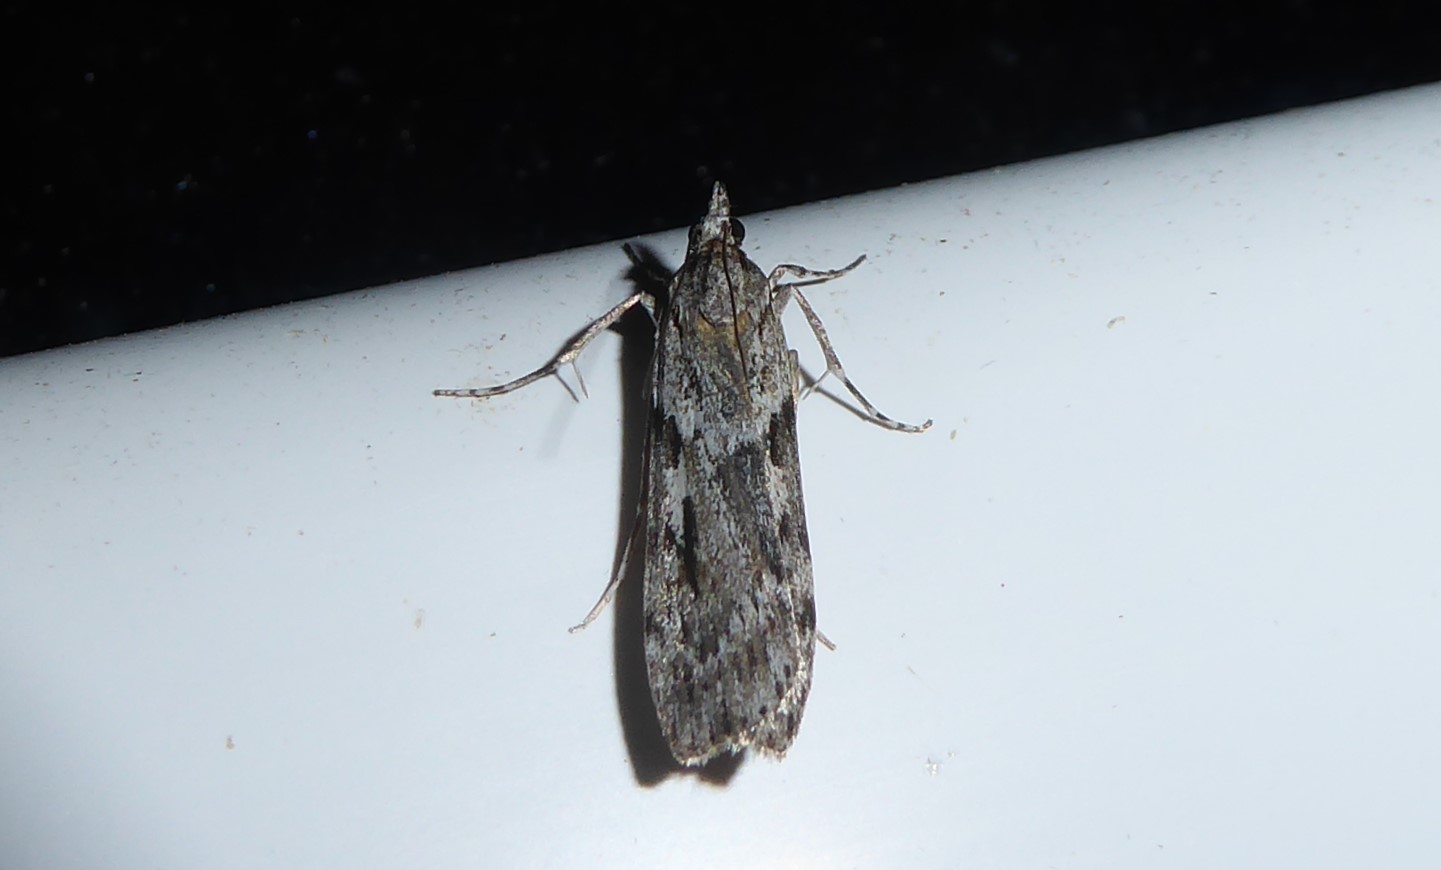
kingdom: Animalia
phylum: Arthropoda
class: Insecta
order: Lepidoptera
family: Crambidae
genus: Scoparia
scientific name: Scoparia halopis
